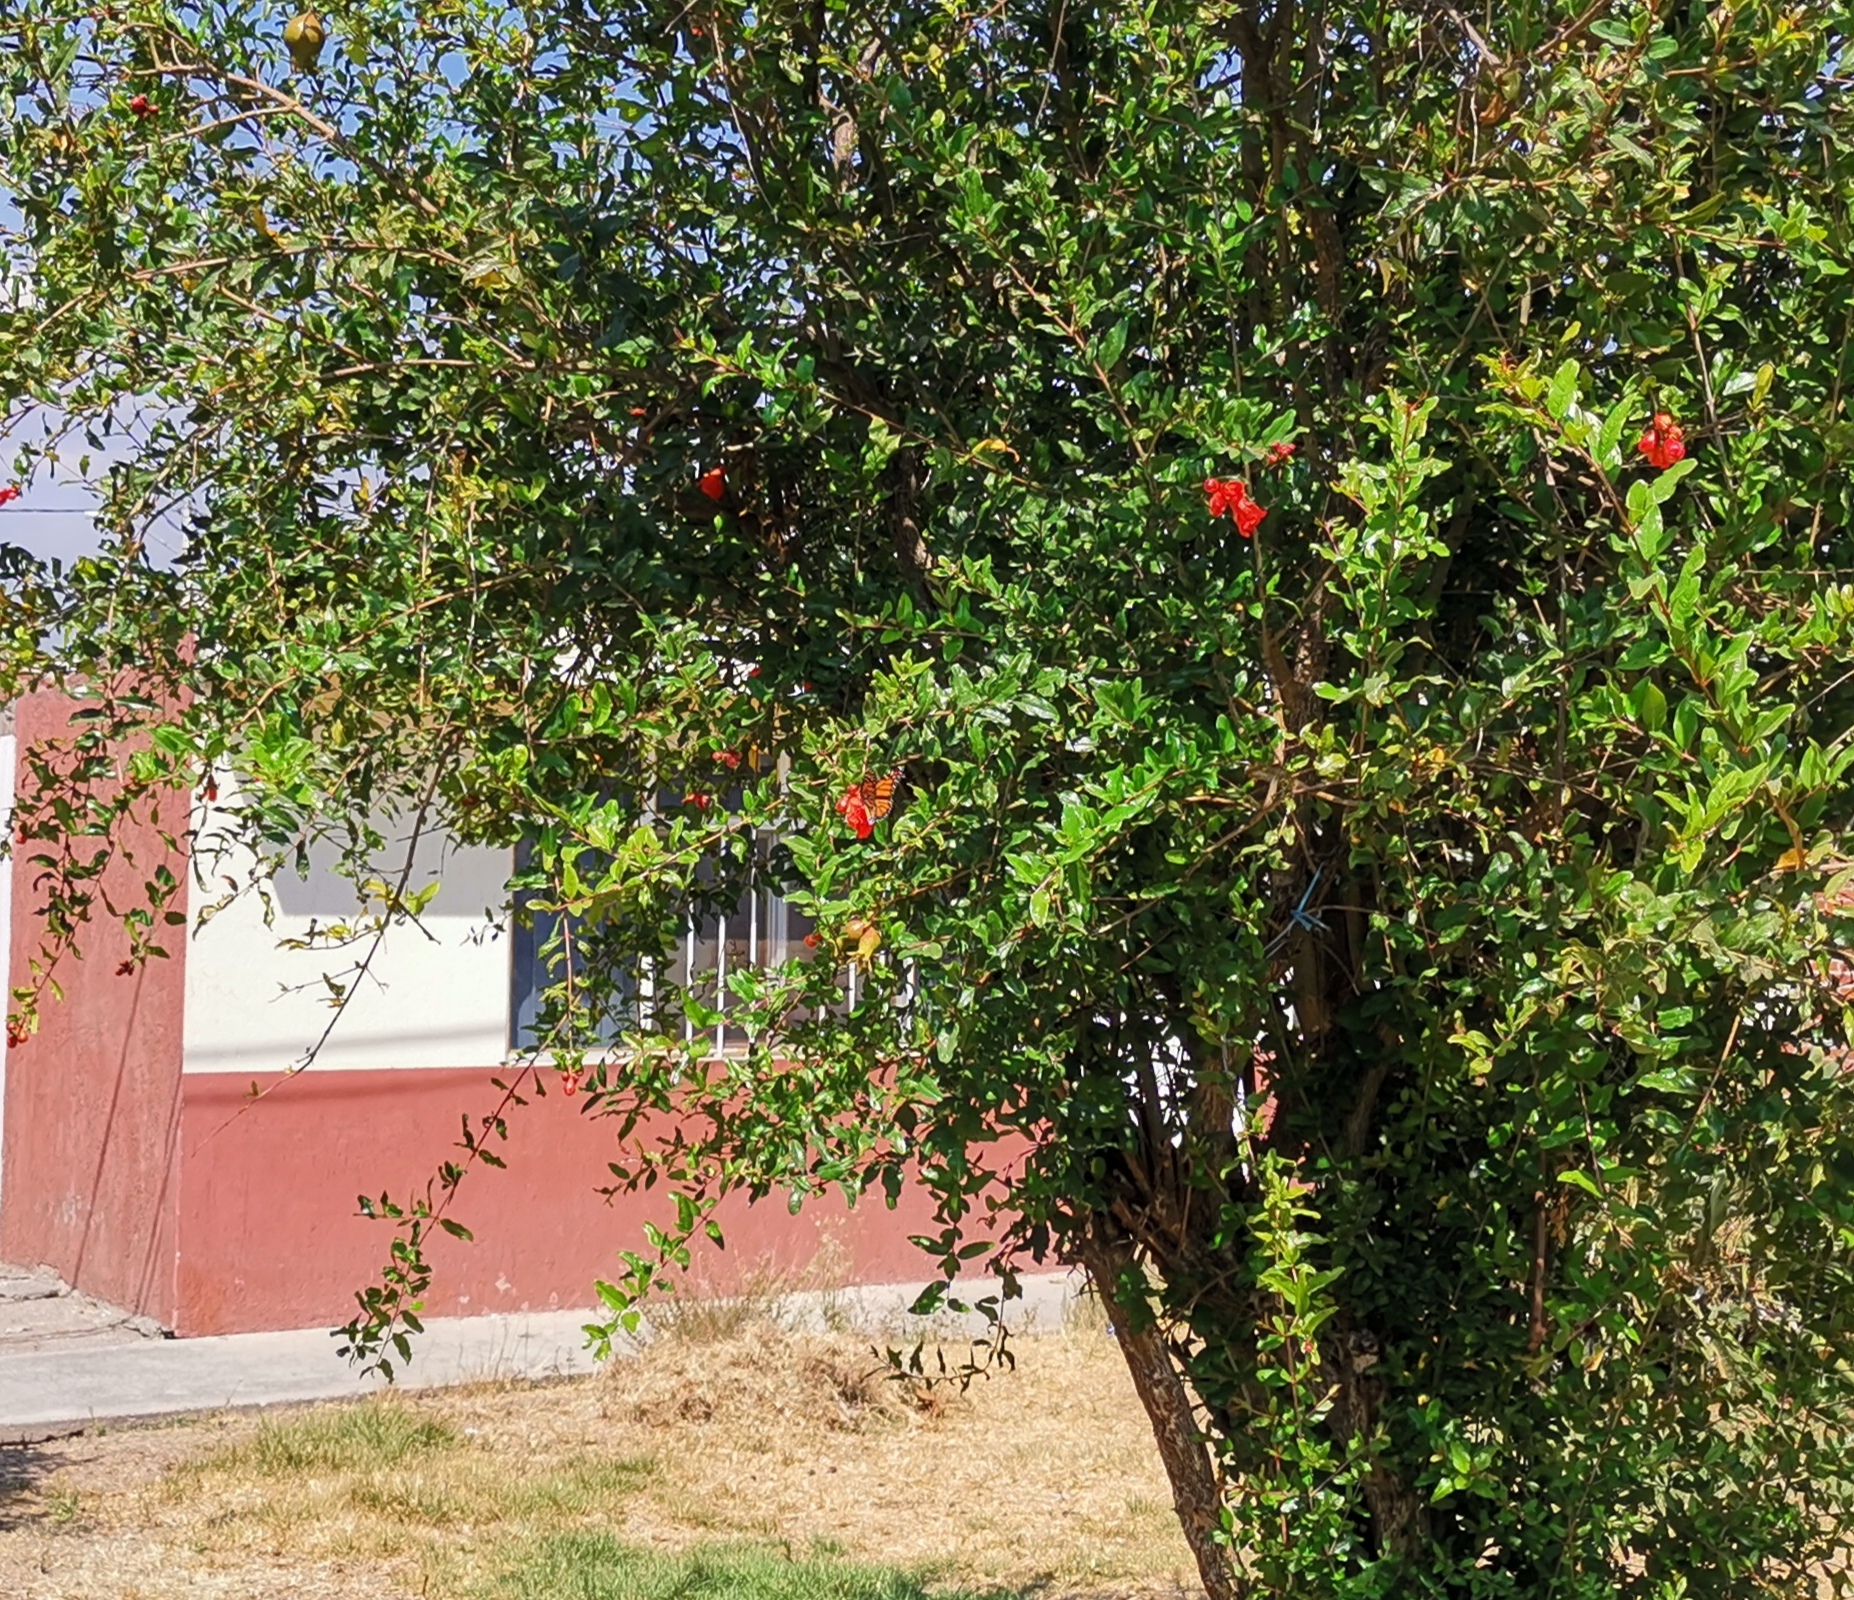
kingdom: Animalia
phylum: Arthropoda
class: Insecta
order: Lepidoptera
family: Nymphalidae
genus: Danaus
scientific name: Danaus plexippus
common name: Monarch
